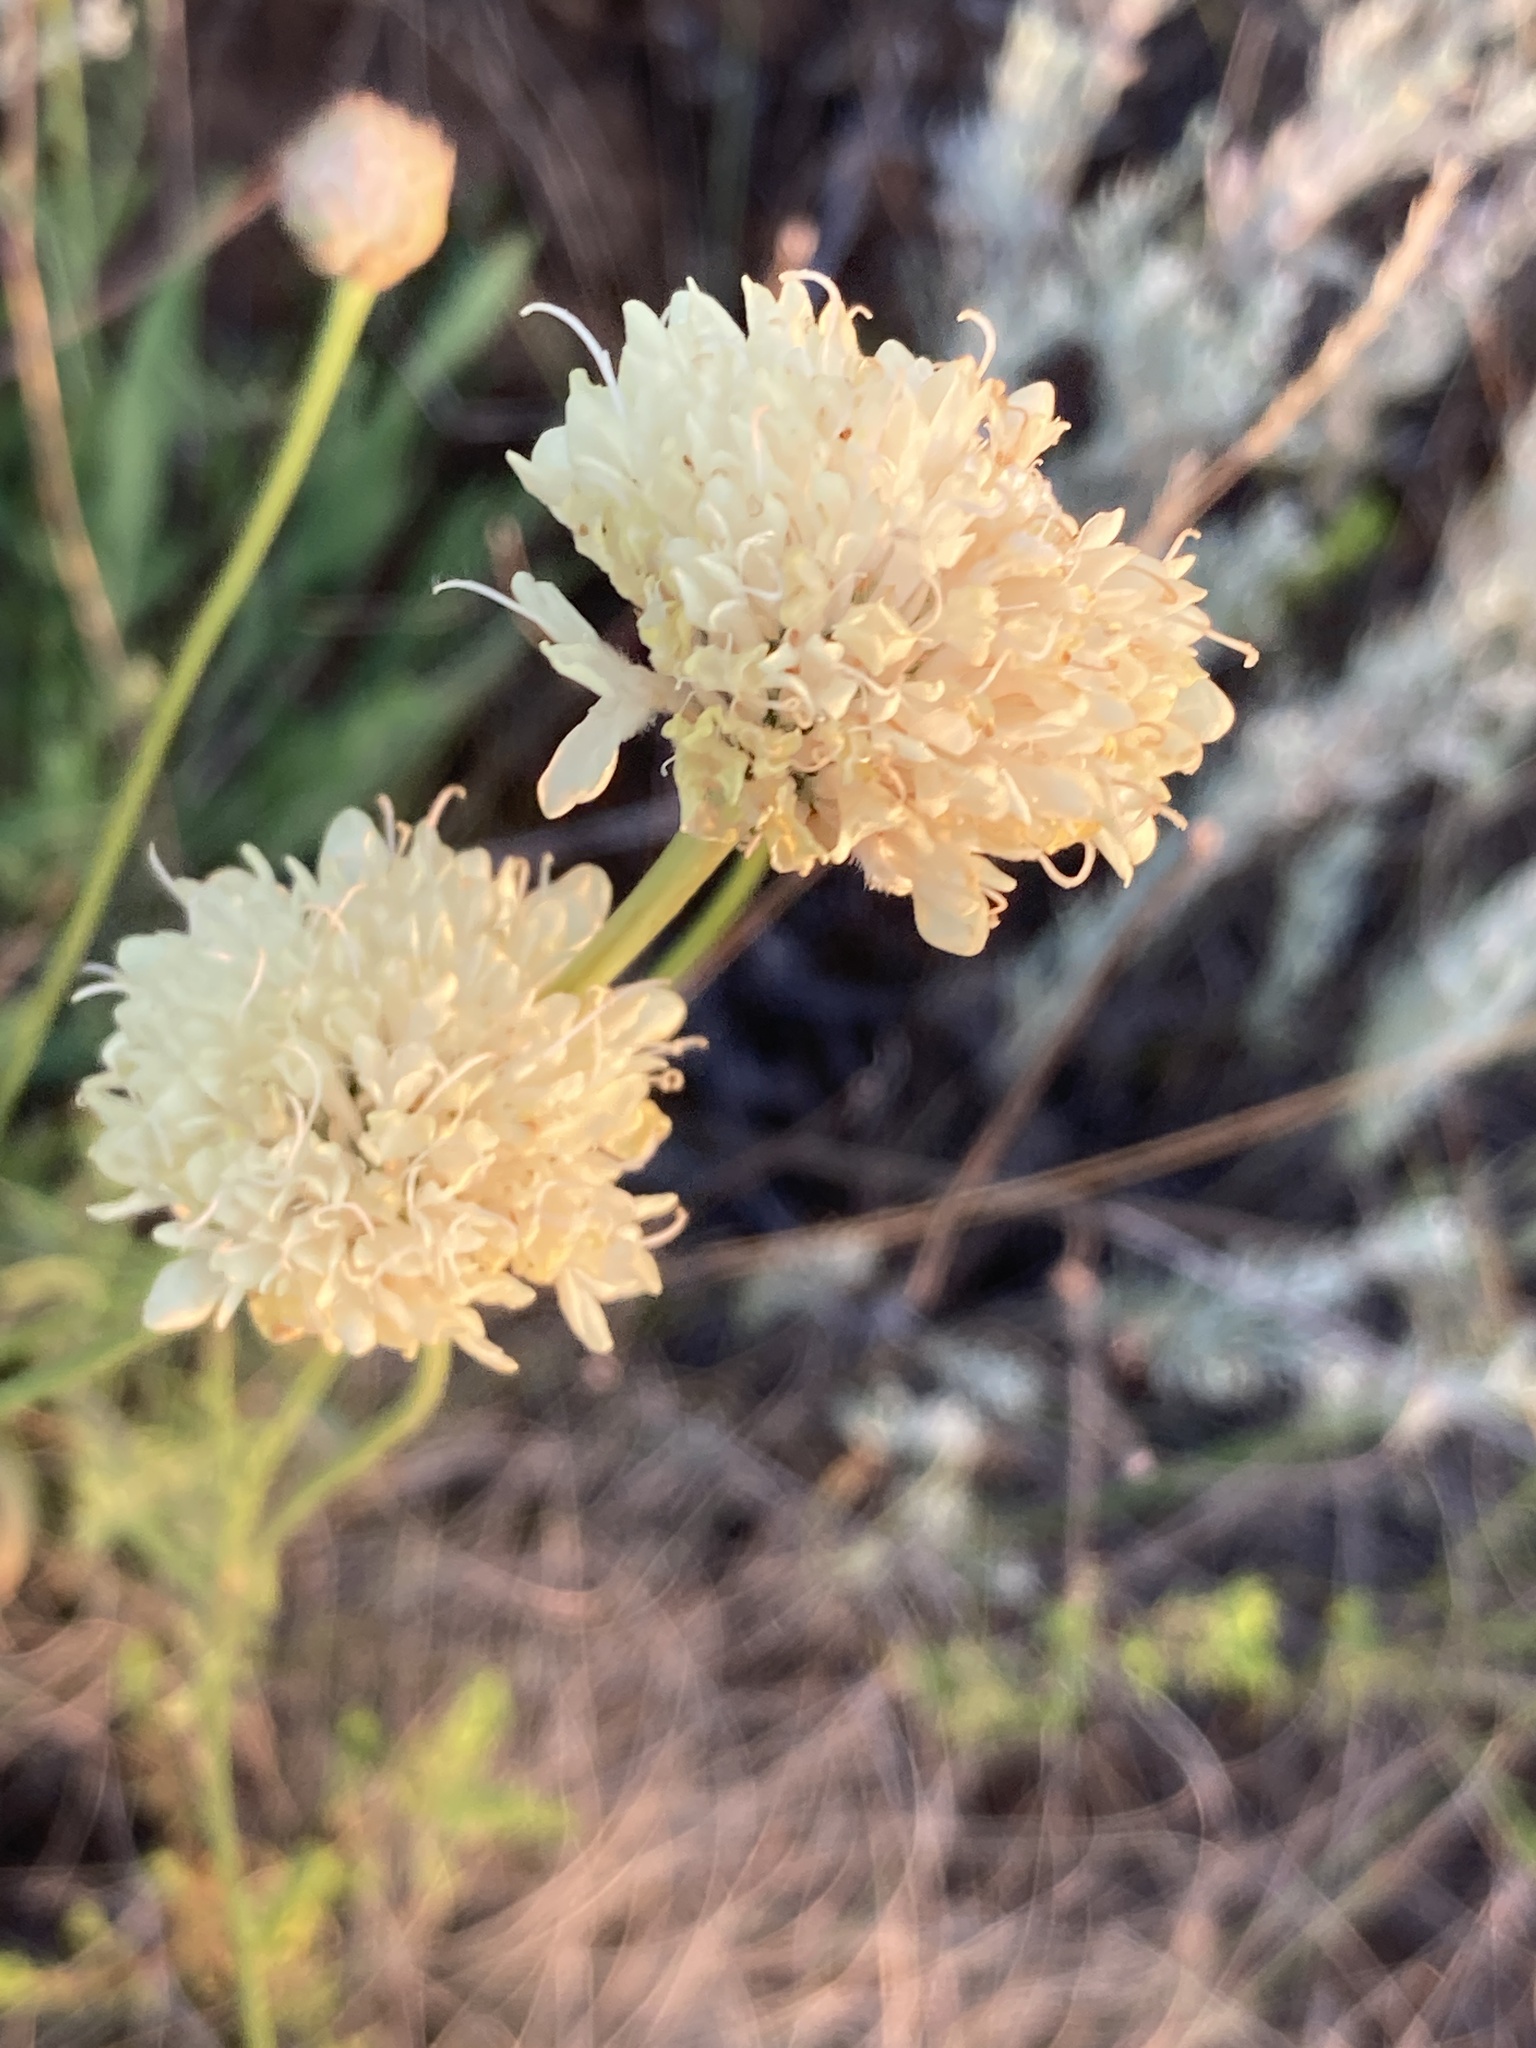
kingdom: Plantae
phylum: Tracheophyta
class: Magnoliopsida
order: Dipsacales
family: Caprifoliaceae
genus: Cephalaria
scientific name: Cephalaria uralensis
